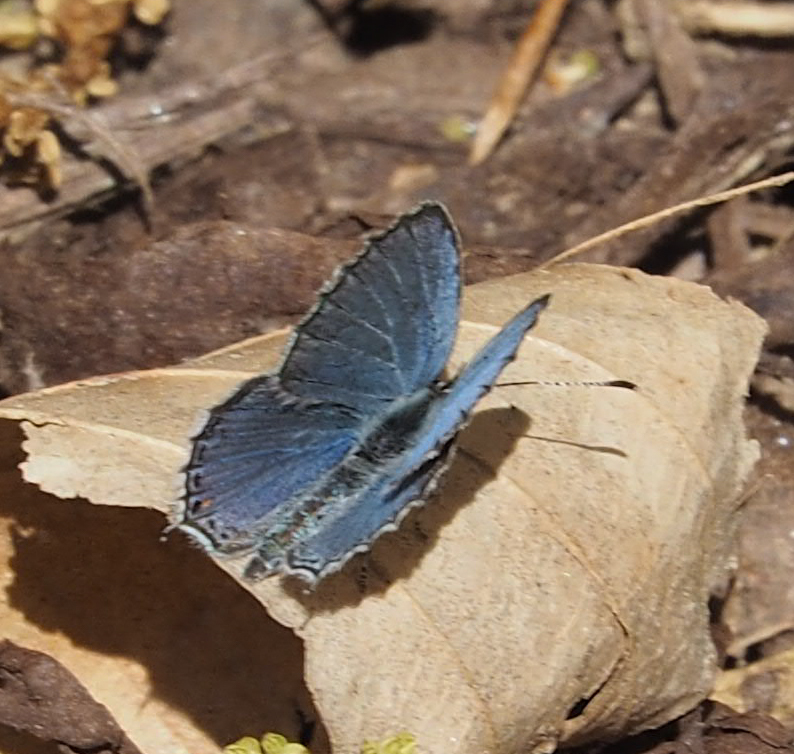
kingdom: Animalia
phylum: Arthropoda
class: Insecta
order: Lepidoptera
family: Lycaenidae
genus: Elkalyce
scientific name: Elkalyce comyntas
